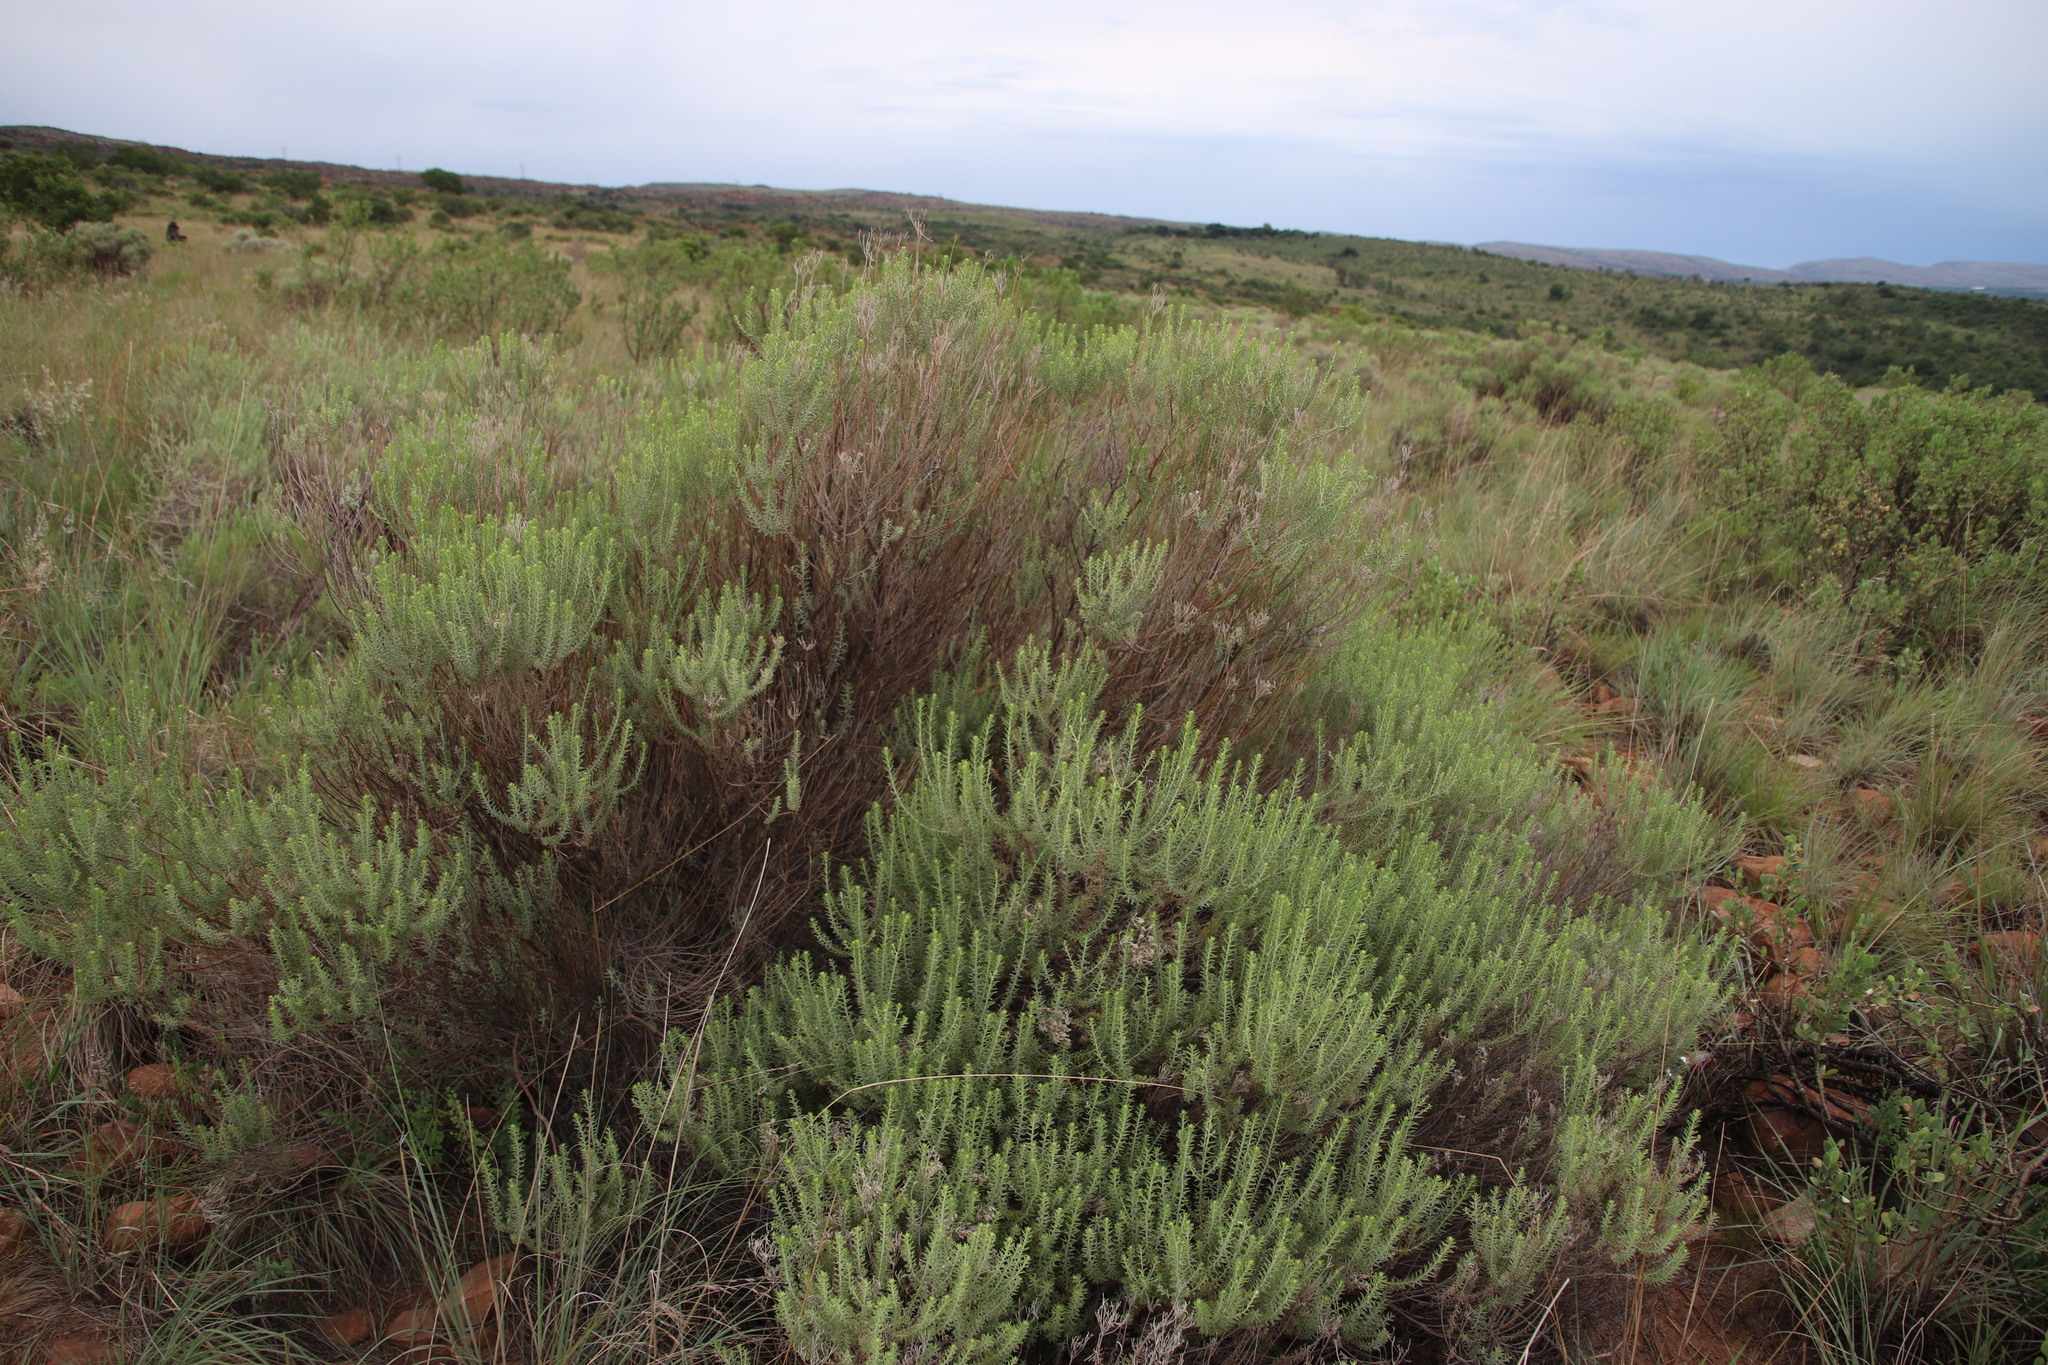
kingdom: Plantae
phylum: Tracheophyta
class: Magnoliopsida
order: Asterales
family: Asteraceae
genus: Helichrysum
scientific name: Helichrysum kraussii
